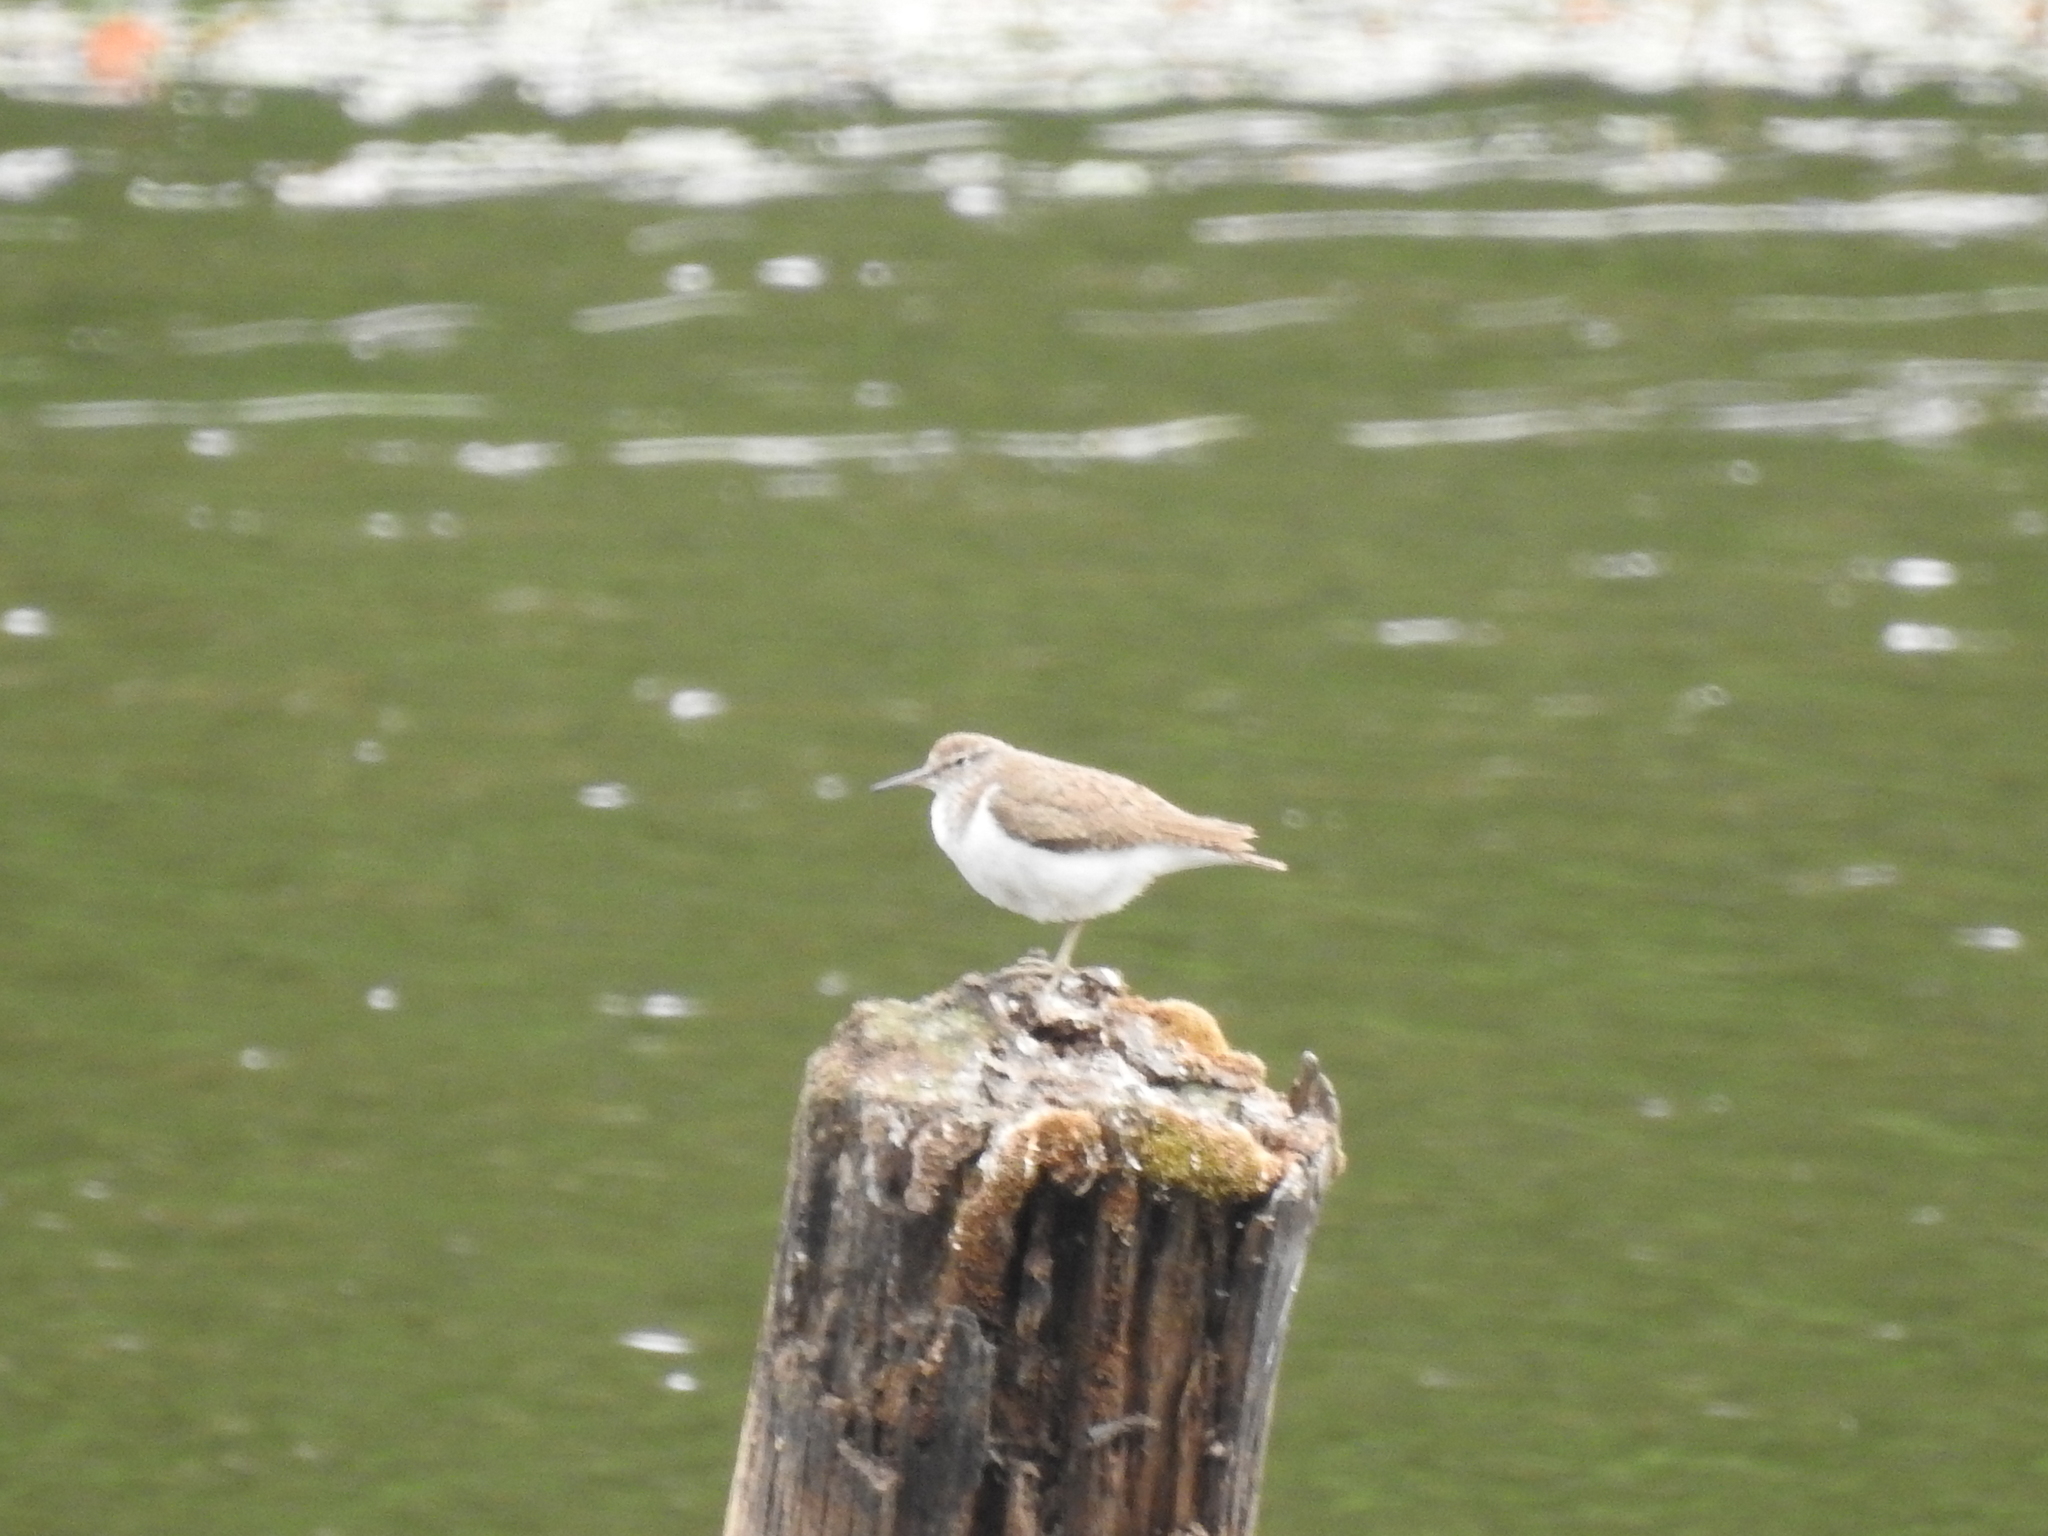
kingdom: Animalia
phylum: Chordata
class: Aves
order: Charadriiformes
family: Scolopacidae
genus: Actitis
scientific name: Actitis hypoleucos
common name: Common sandpiper
